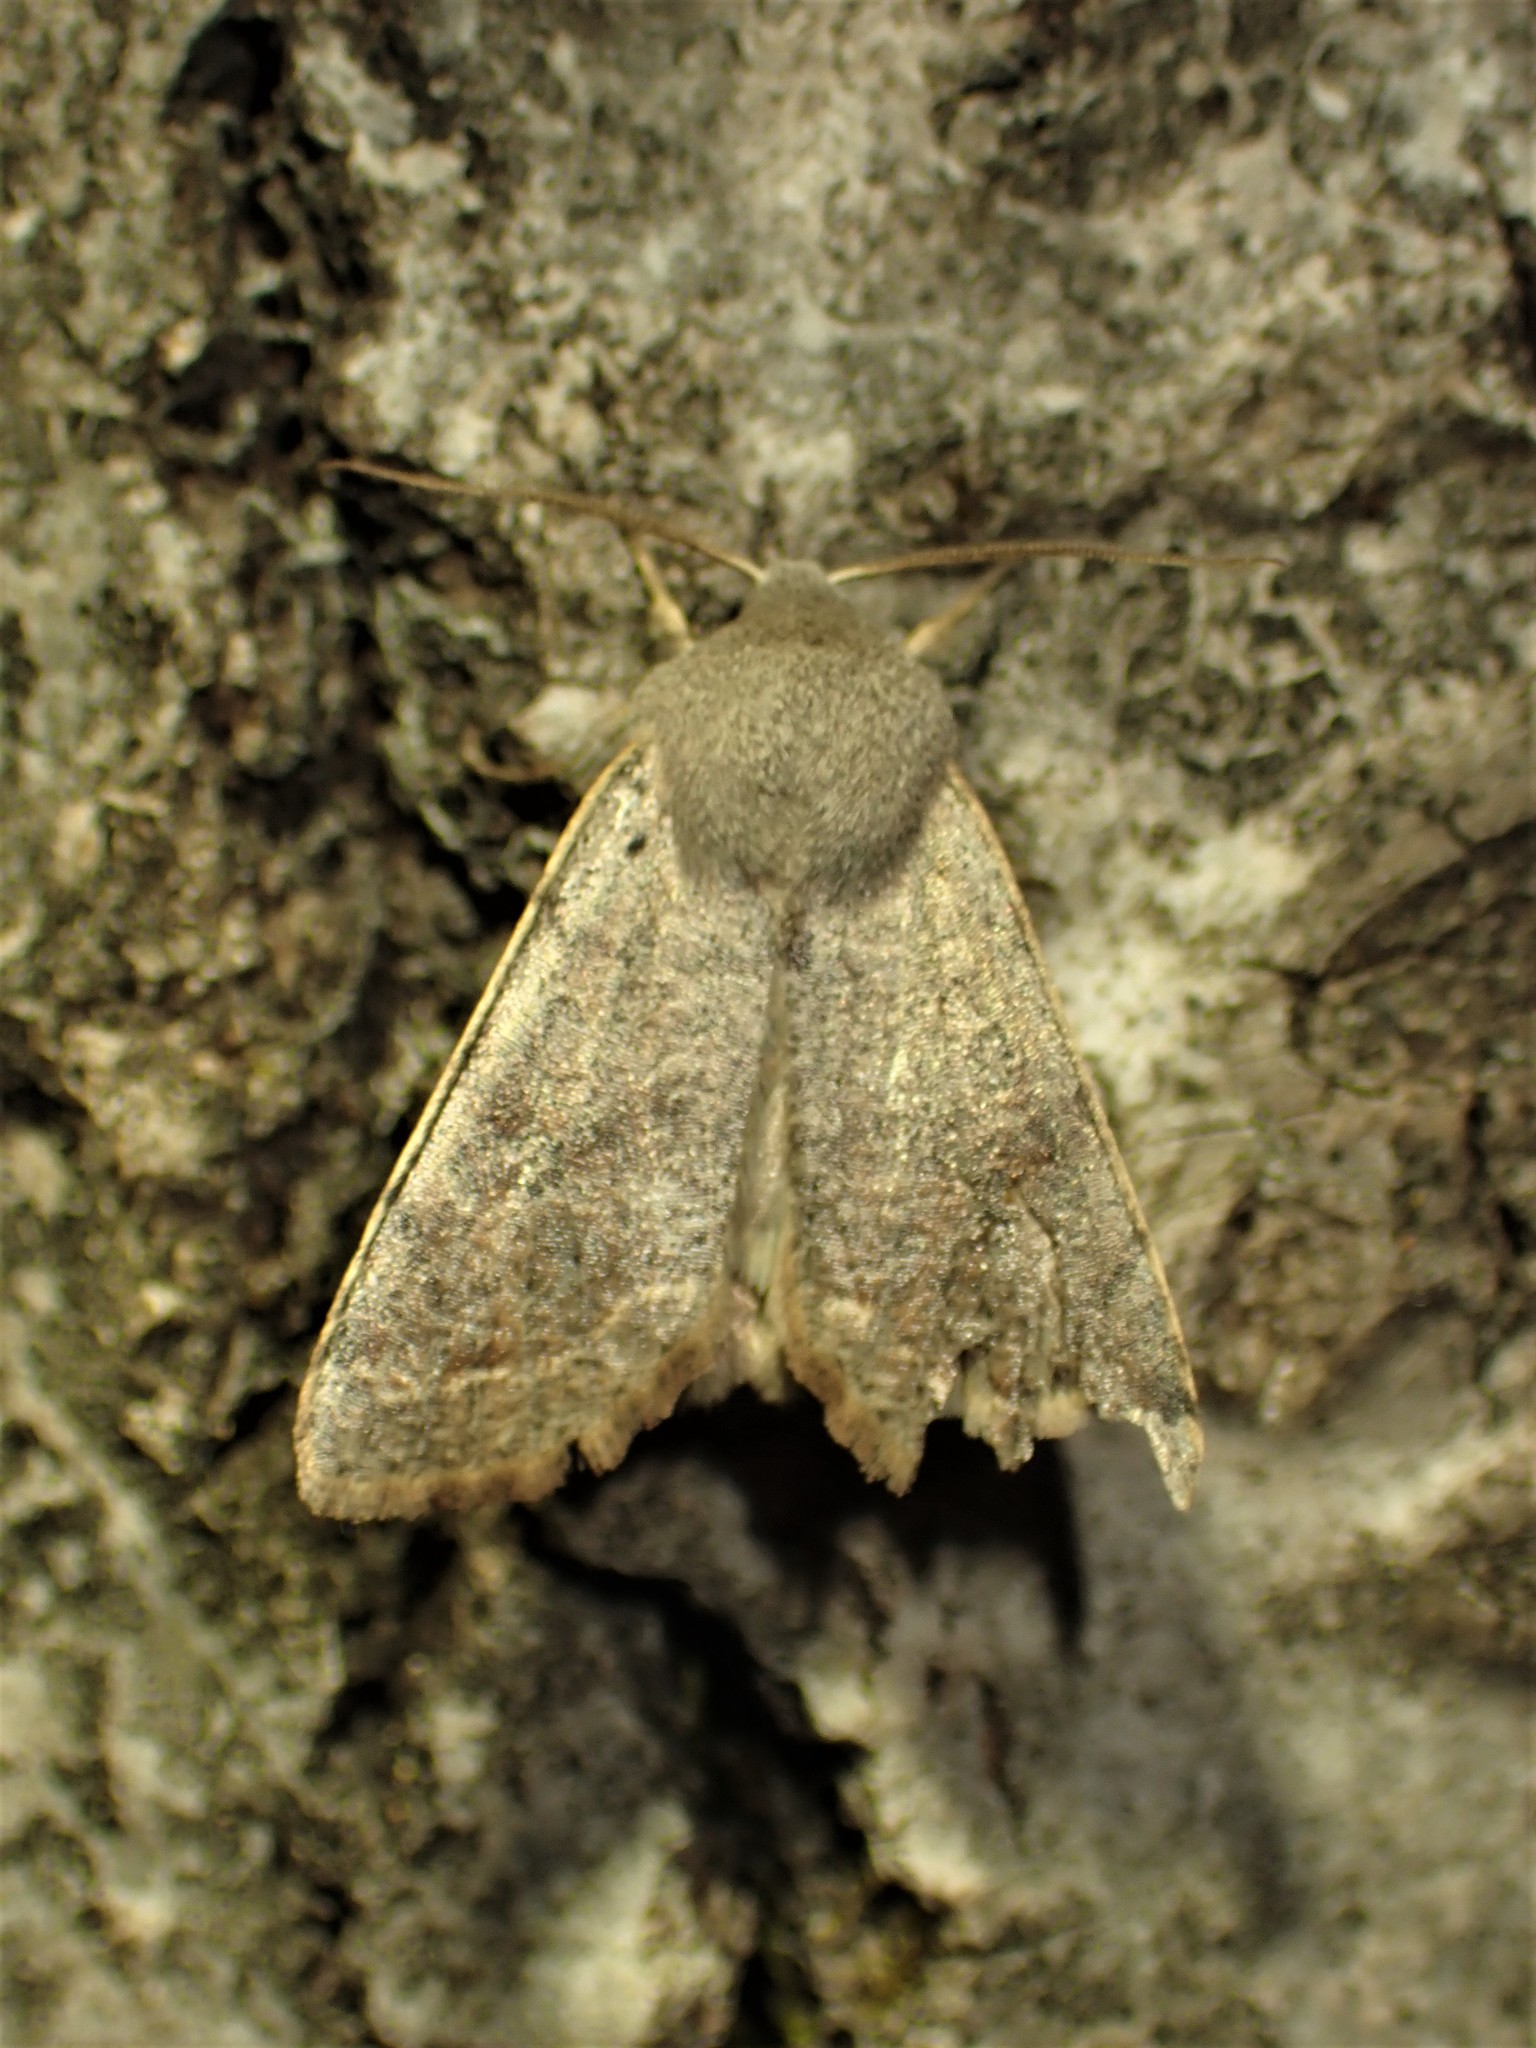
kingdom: Animalia
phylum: Arthropoda
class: Insecta
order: Lepidoptera
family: Noctuidae
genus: Orthosia
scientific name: Orthosia hibisci
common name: Green fruitworm
